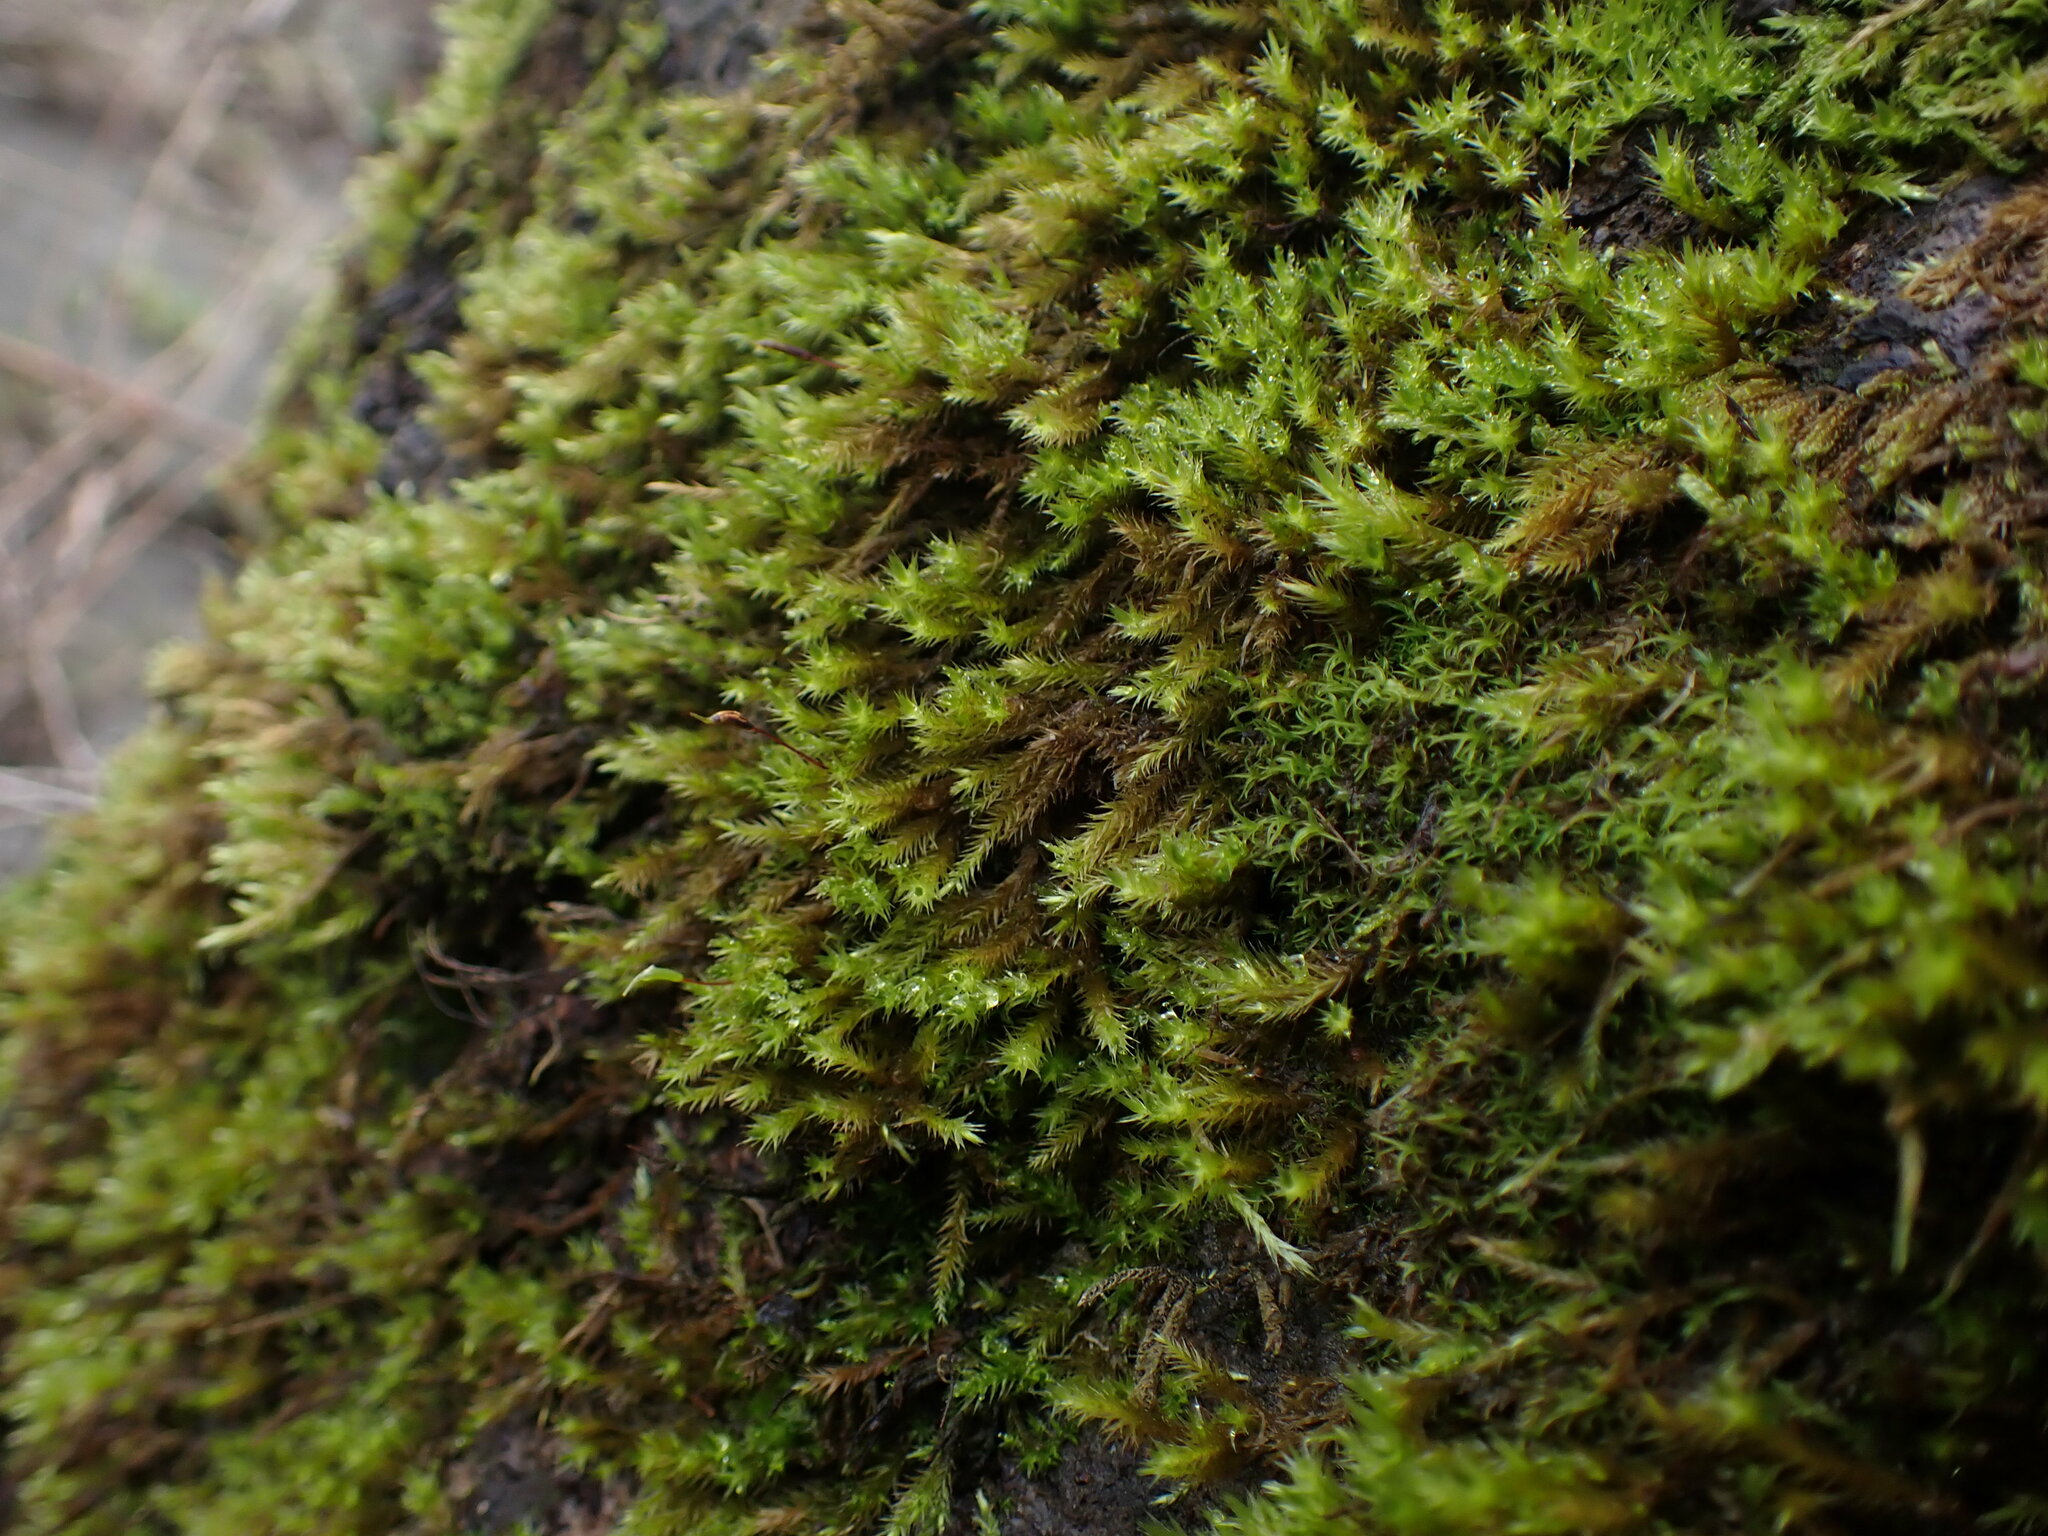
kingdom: Plantae
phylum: Bryophyta
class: Bryopsida
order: Hypnales
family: Brachytheciaceae
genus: Homalothecium
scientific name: Homalothecium fulgescens
